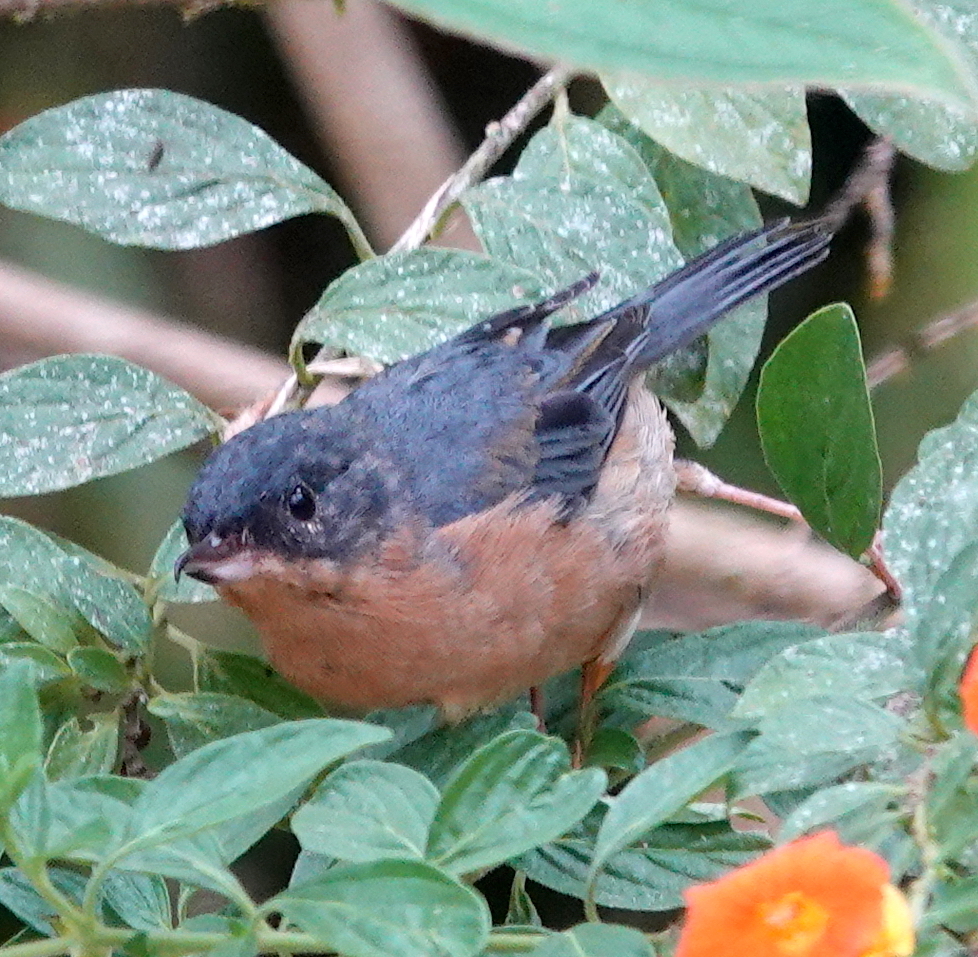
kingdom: Animalia
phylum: Chordata
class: Aves
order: Passeriformes
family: Thraupidae
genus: Diglossa
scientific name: Diglossa sittoides
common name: Rusty flowerpiercer
